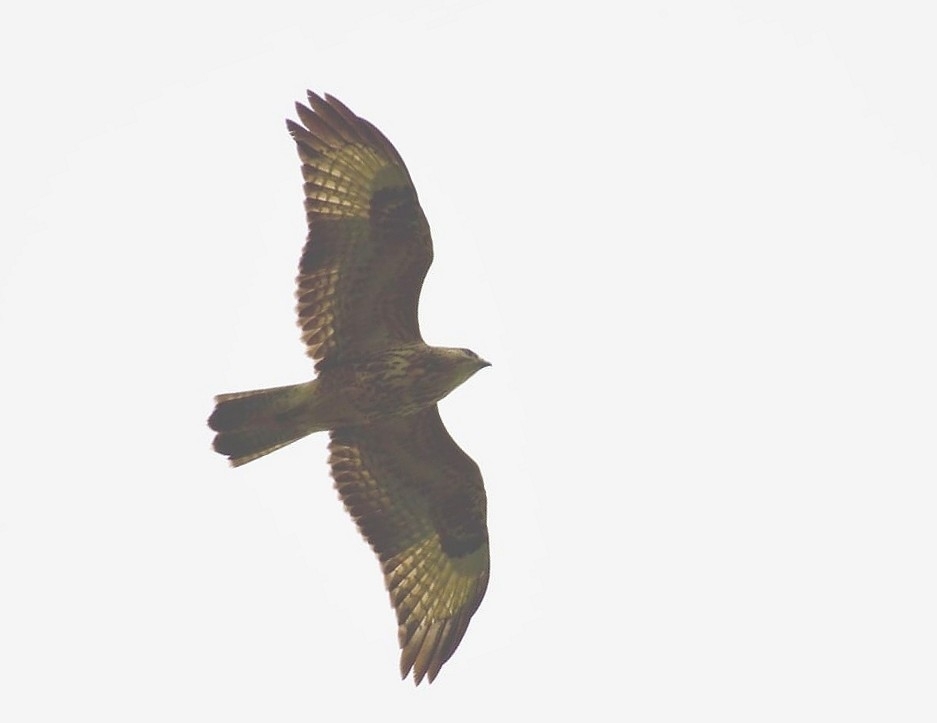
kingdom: Animalia
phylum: Chordata
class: Aves
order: Accipitriformes
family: Accipitridae
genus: Buteo
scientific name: Buteo buteo
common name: Common buzzard
